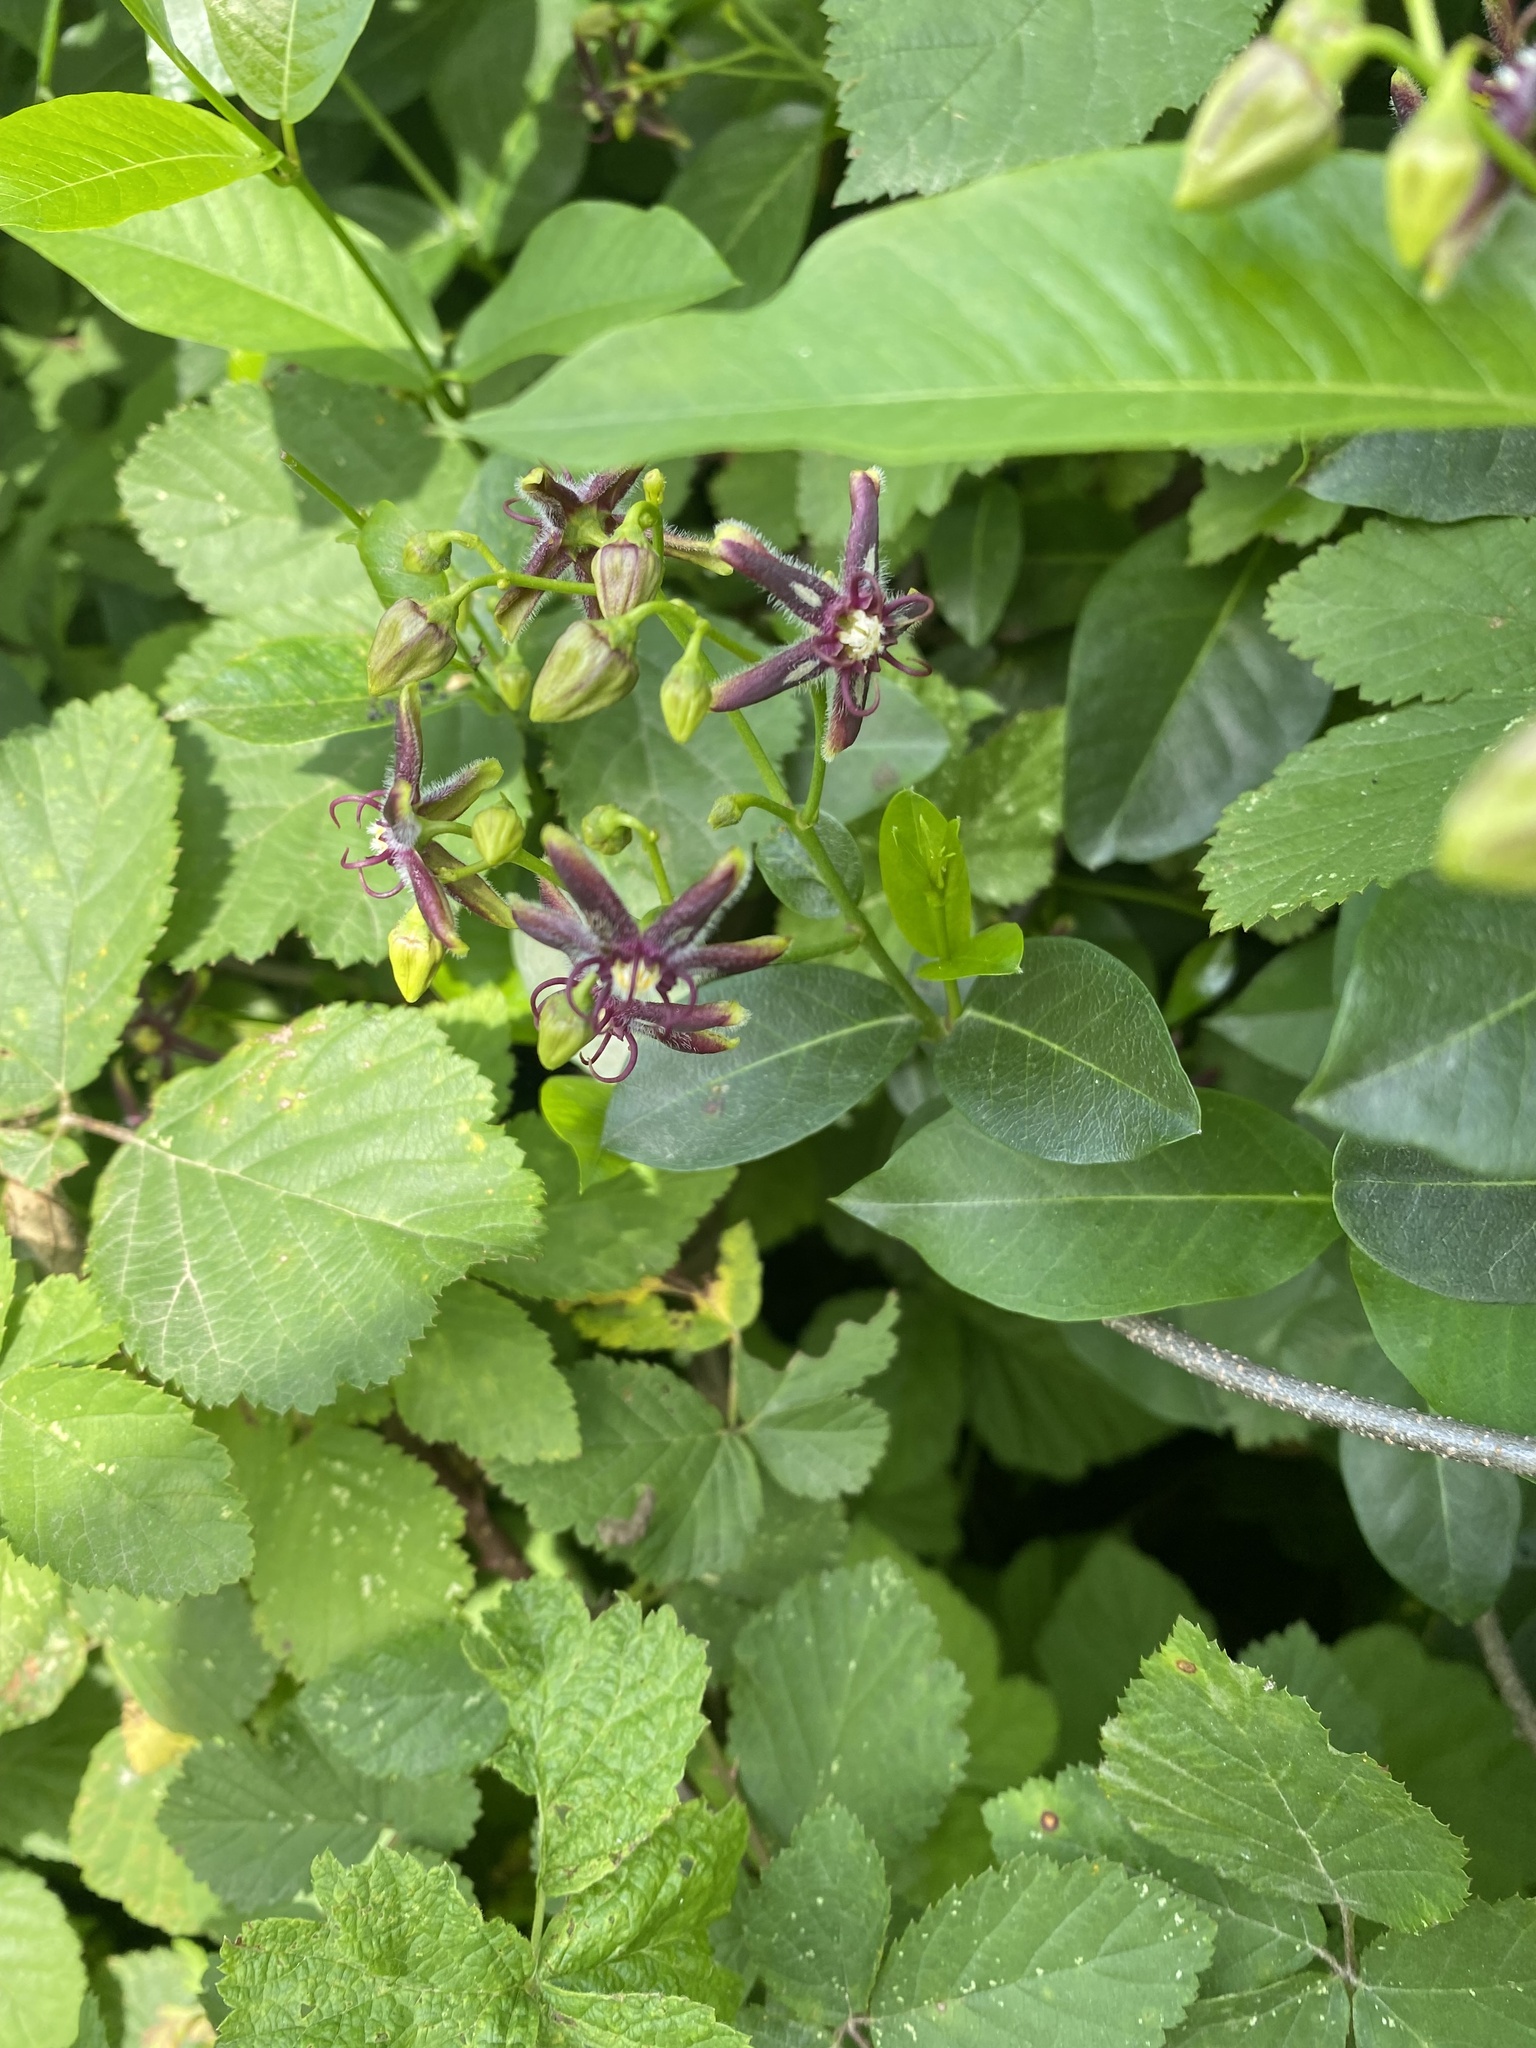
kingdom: Plantae
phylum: Tracheophyta
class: Magnoliopsida
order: Gentianales
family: Apocynaceae
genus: Periploca
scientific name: Periploca graeca
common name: Silkvine
